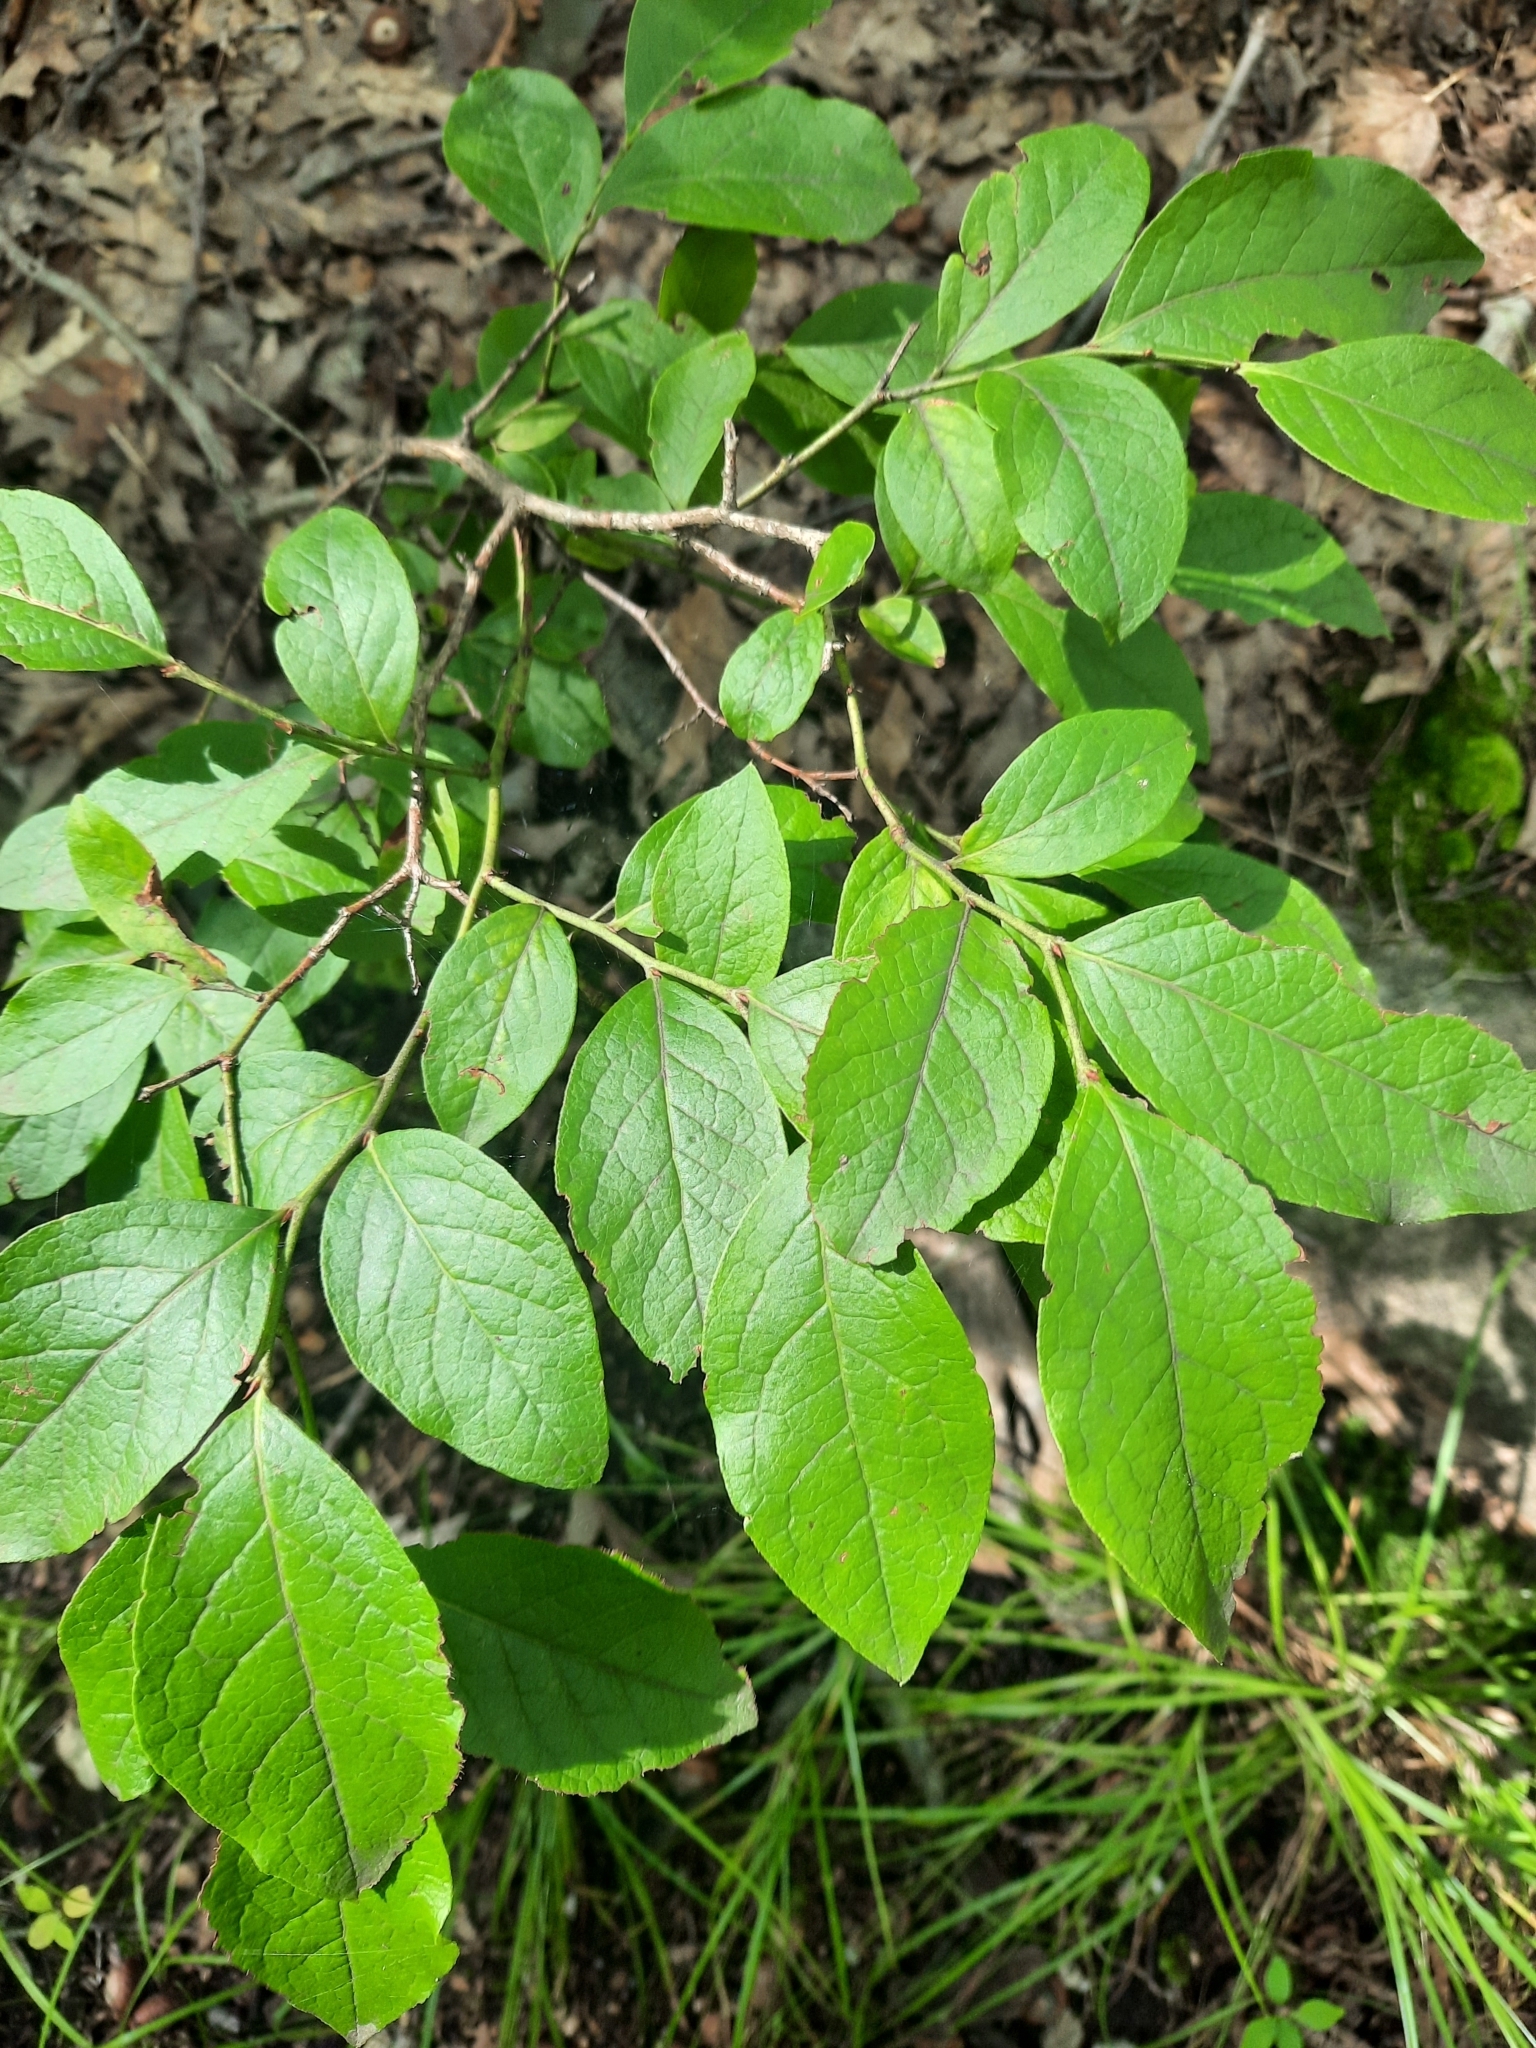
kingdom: Plantae
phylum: Tracheophyta
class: Magnoliopsida
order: Ericales
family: Ericaceae
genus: Vaccinium
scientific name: Vaccinium corymbosum
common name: Blueberry
